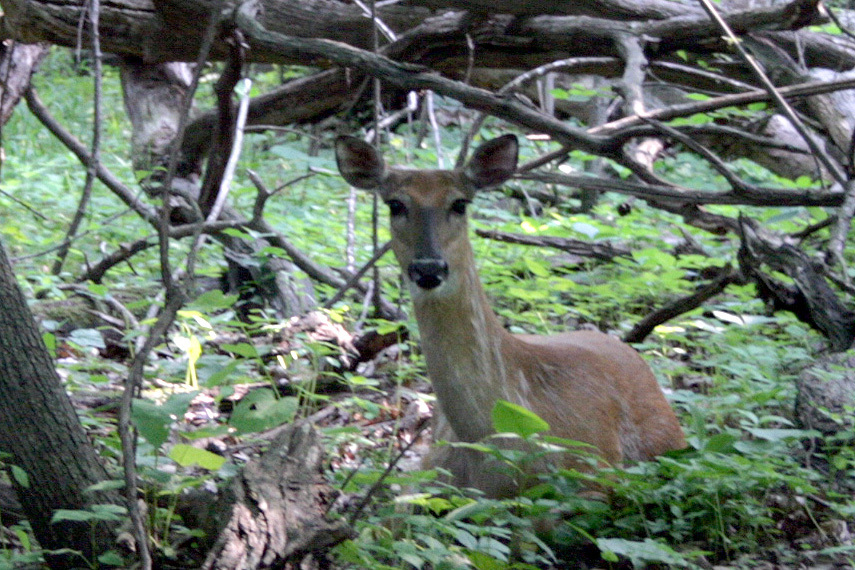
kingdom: Animalia
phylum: Chordata
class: Mammalia
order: Artiodactyla
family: Cervidae
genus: Odocoileus
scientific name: Odocoileus virginianus
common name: White-tailed deer
